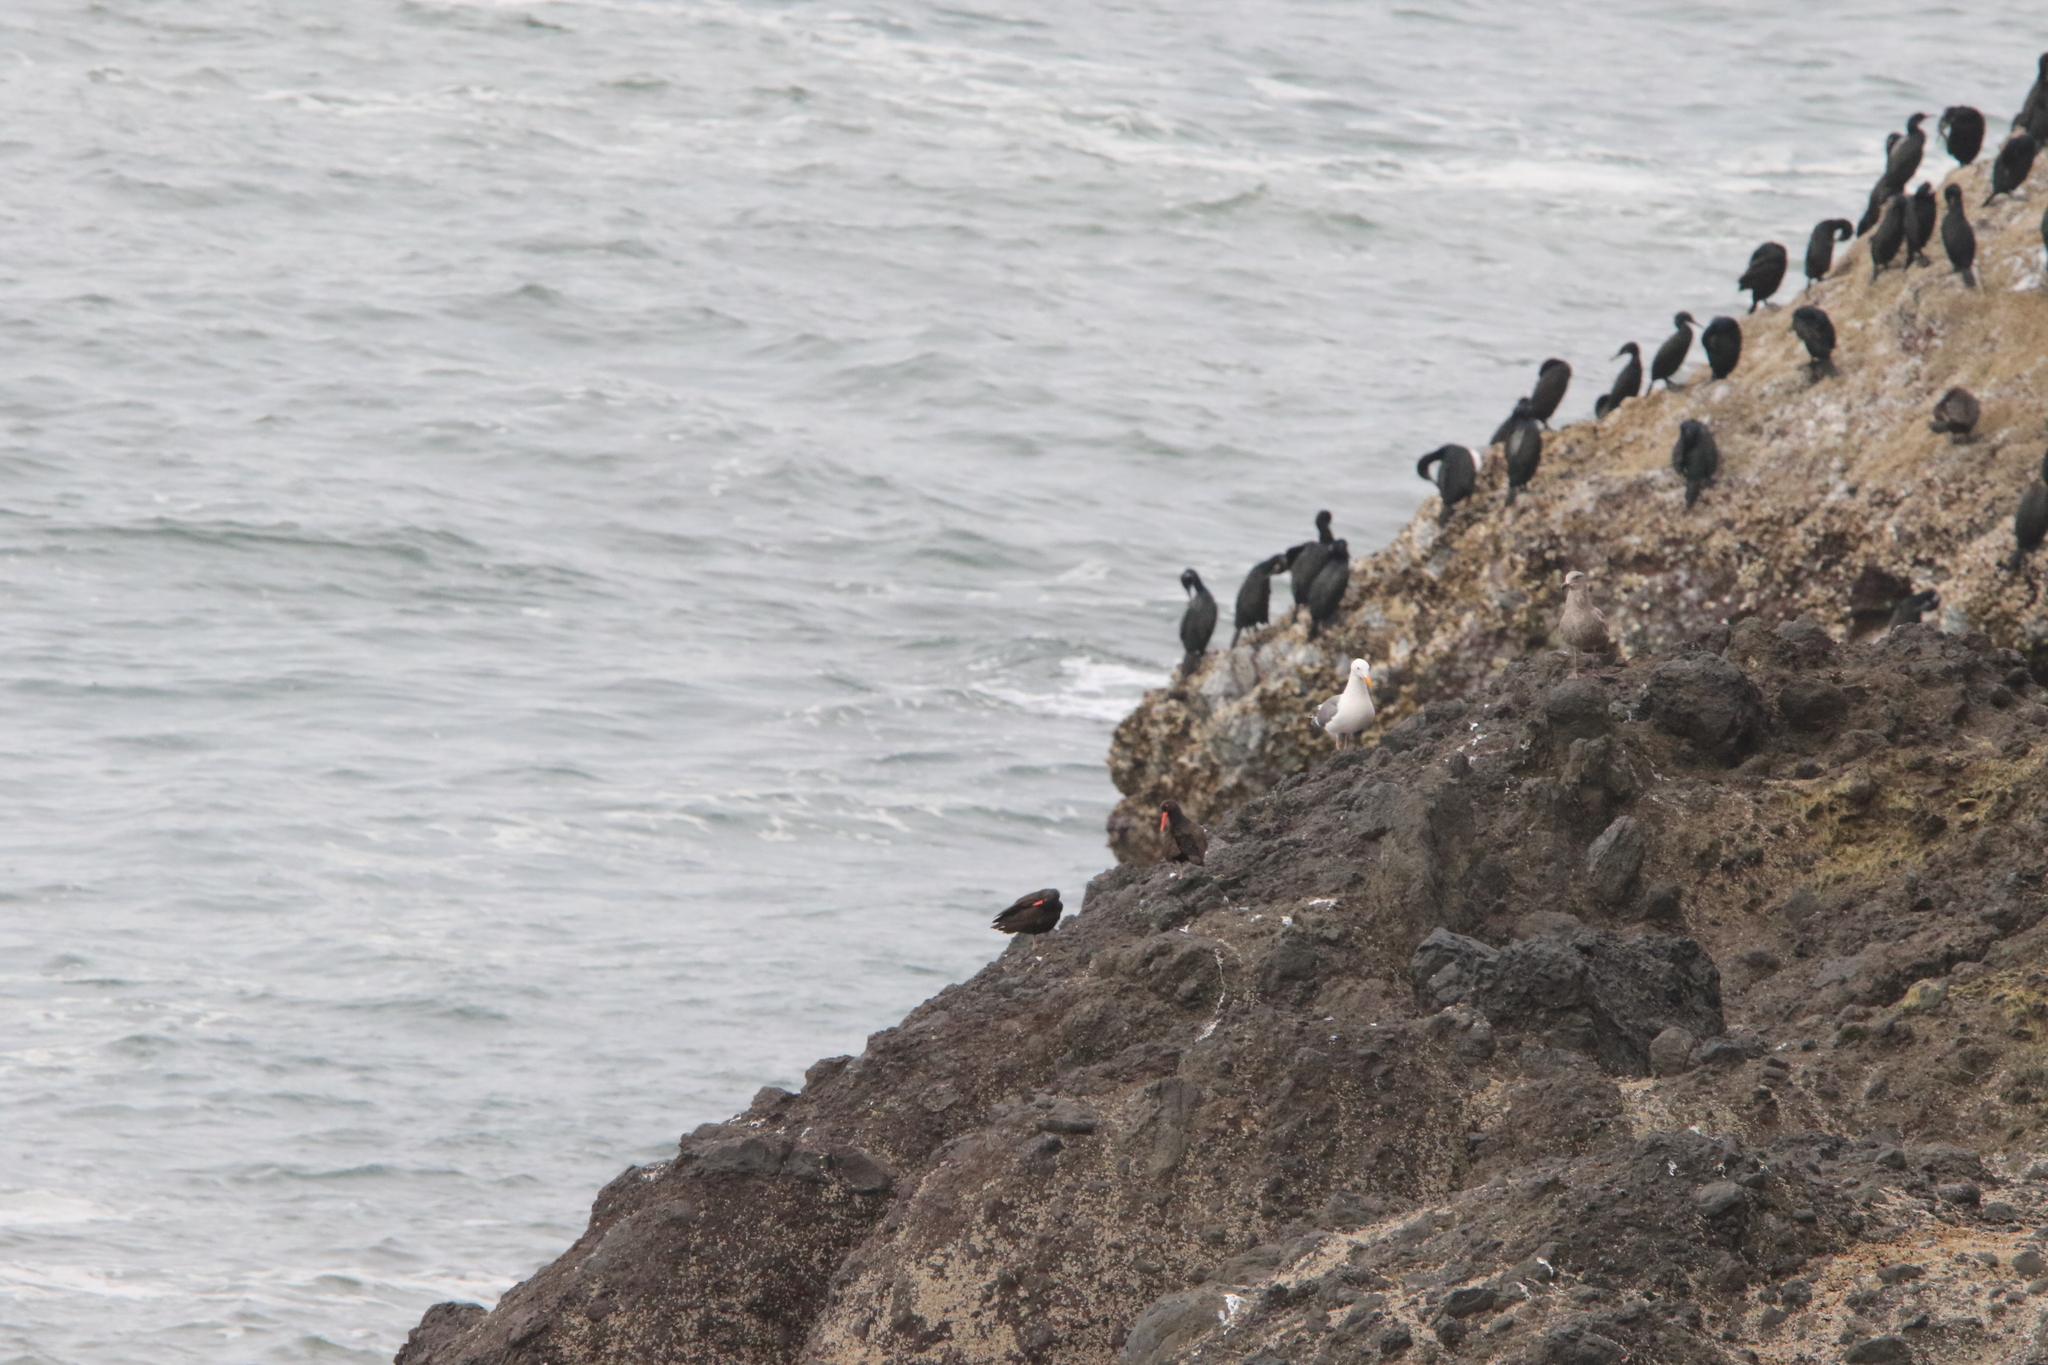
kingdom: Animalia
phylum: Chordata
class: Aves
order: Charadriiformes
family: Haematopodidae
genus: Haematopus
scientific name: Haematopus bachmani
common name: Black oystercatcher
